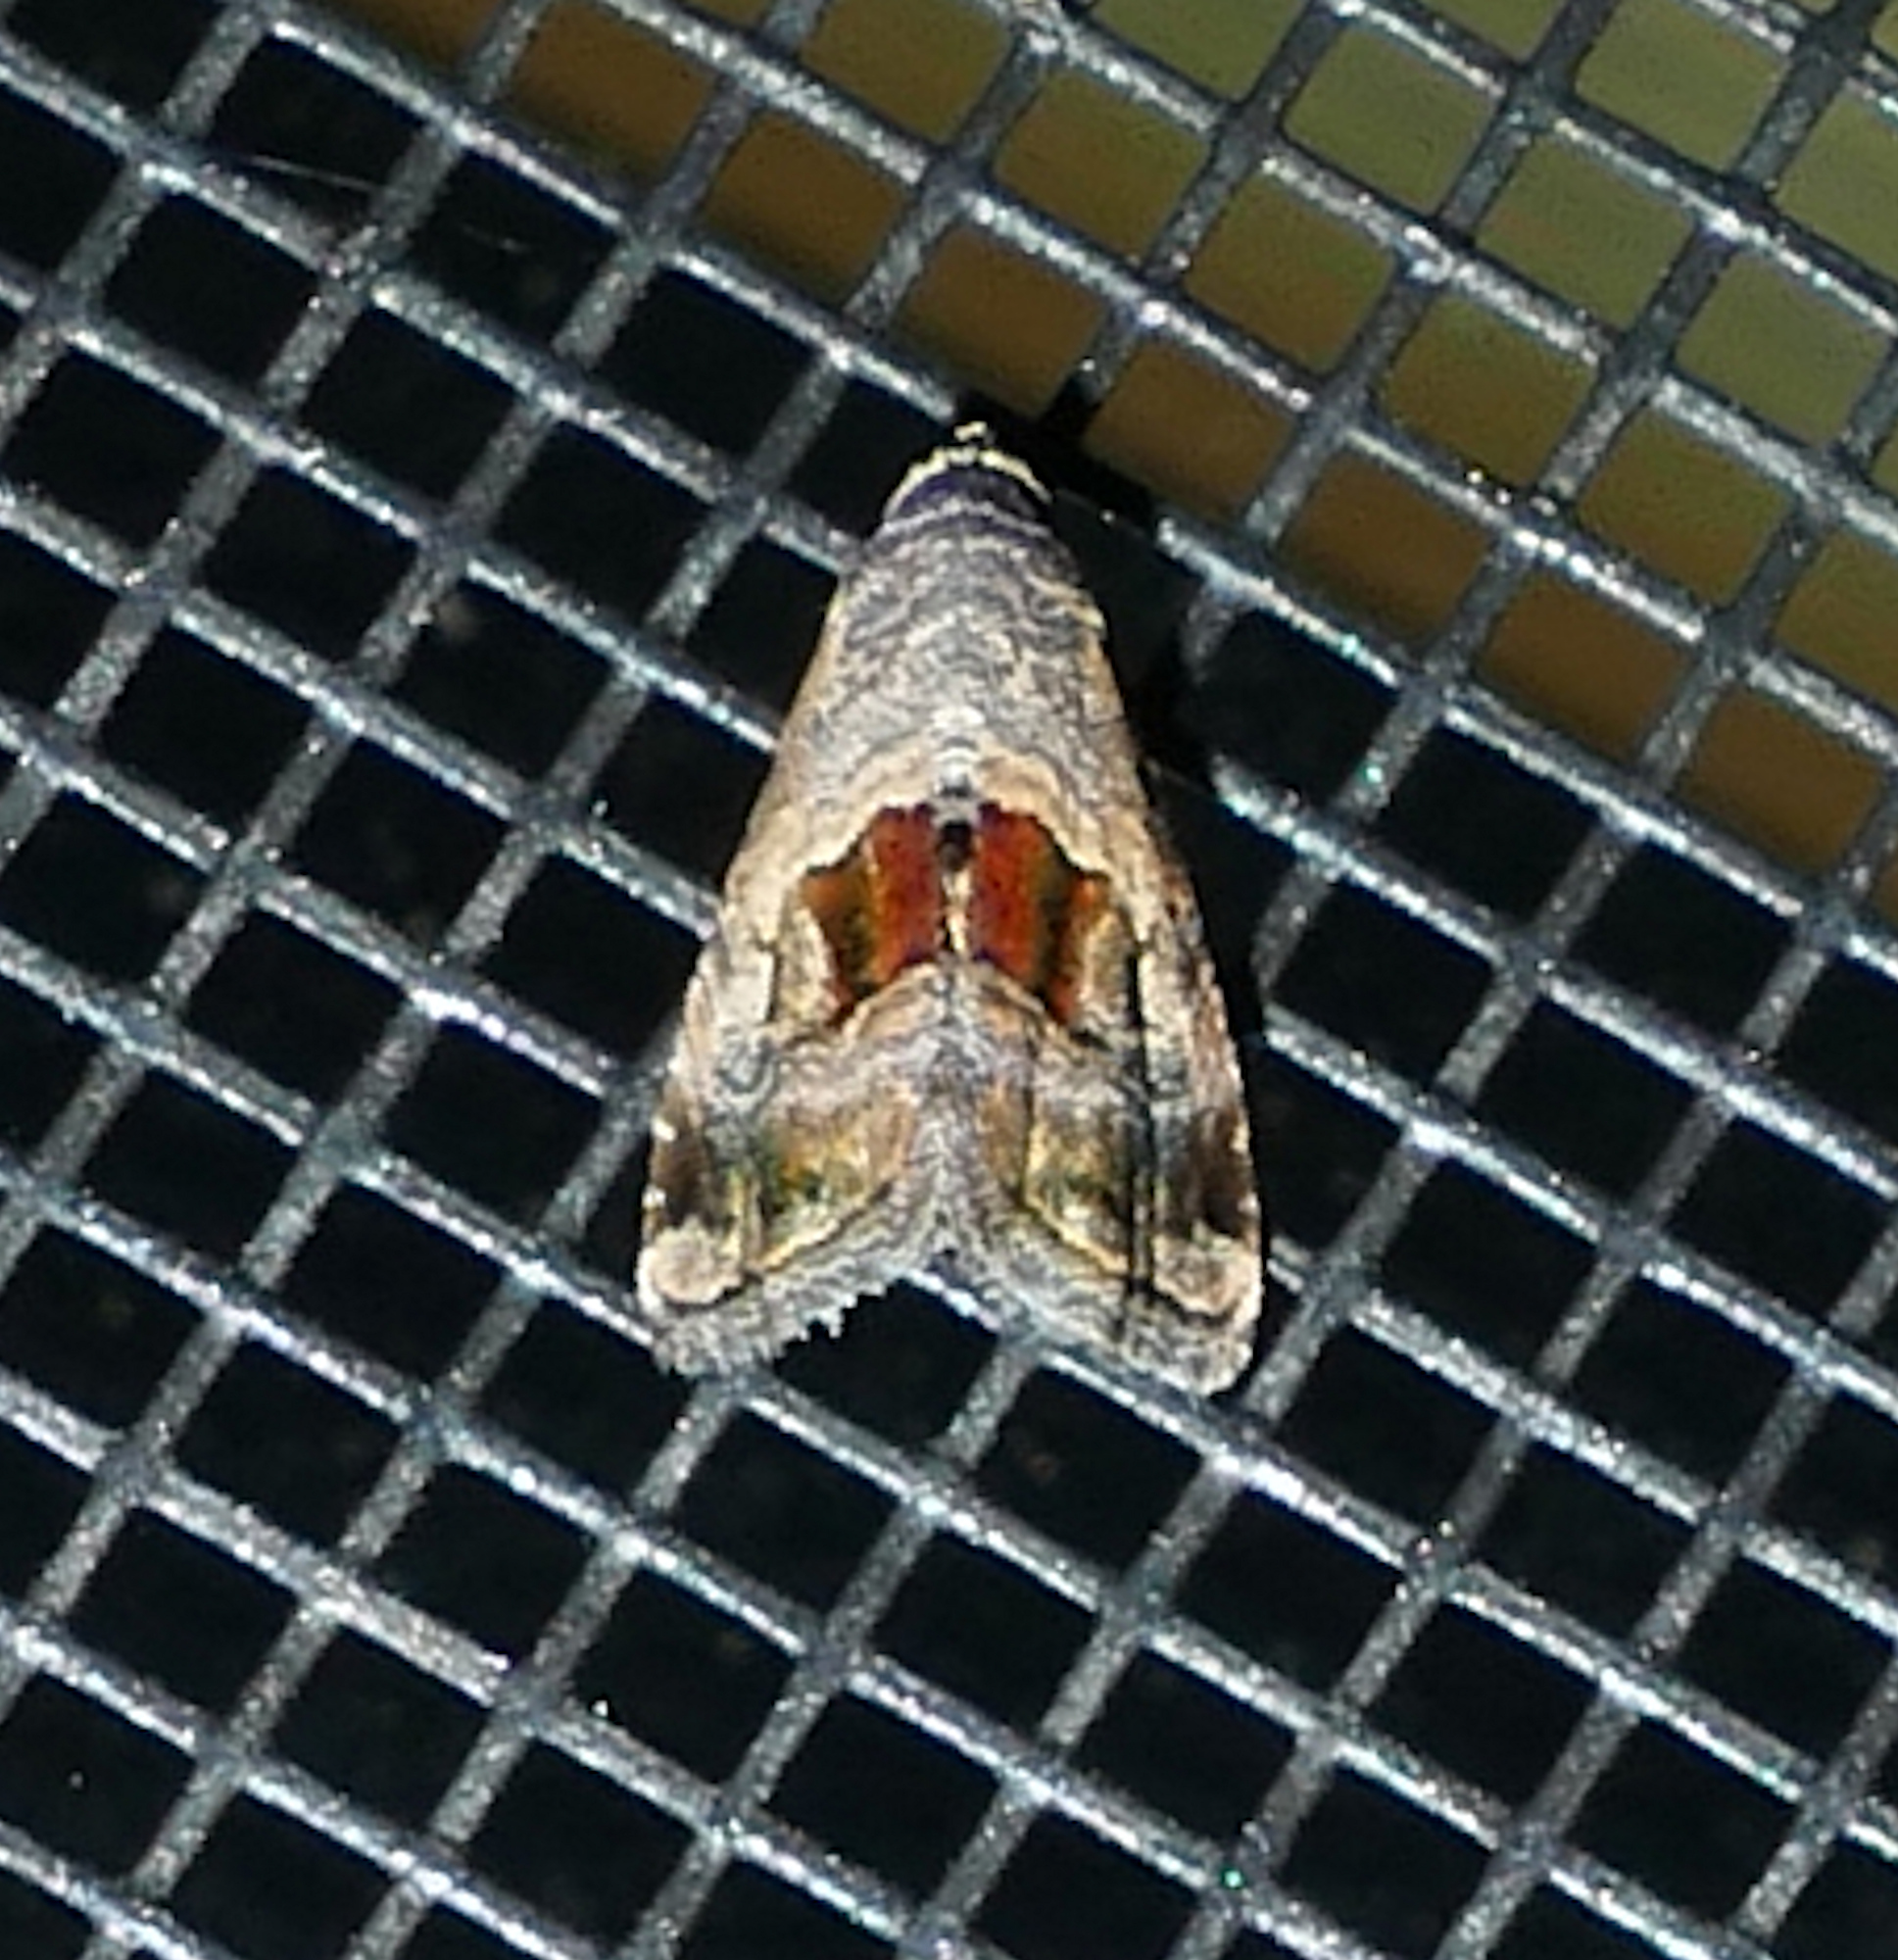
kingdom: Animalia
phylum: Arthropoda
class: Insecta
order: Lepidoptera
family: Noctuidae
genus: Tripudia
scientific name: Tripudia quadrifera
